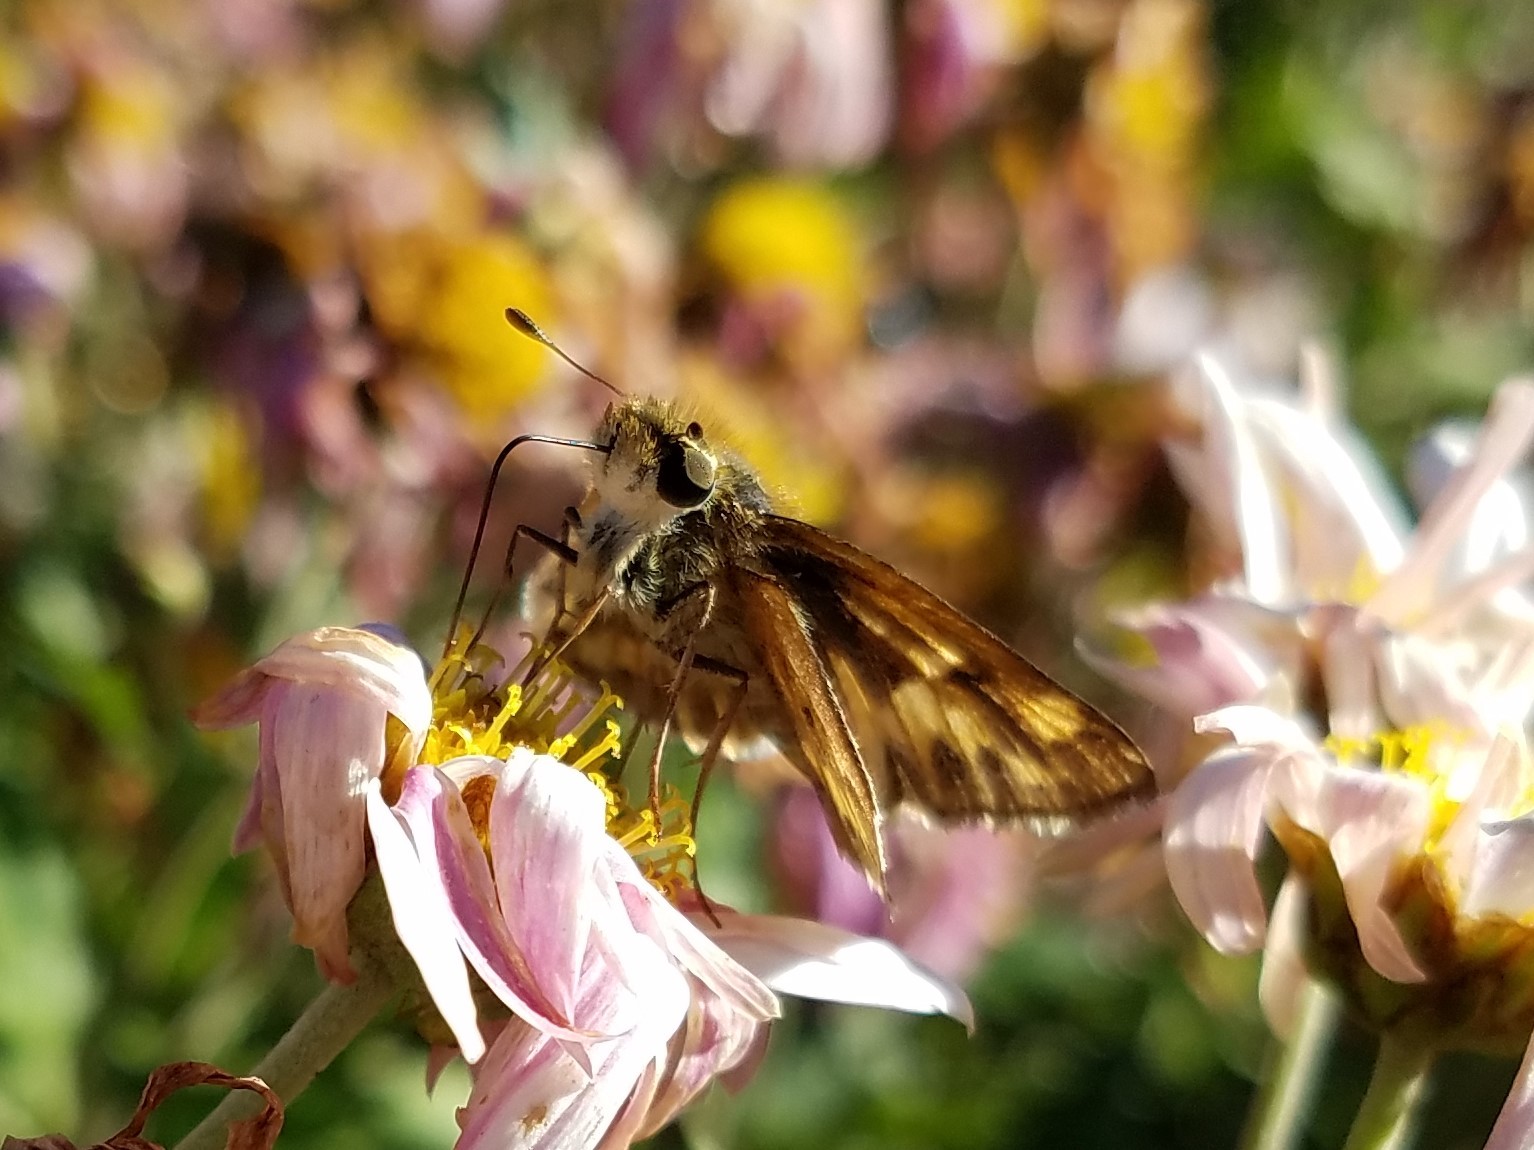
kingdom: Animalia
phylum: Arthropoda
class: Insecta
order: Lepidoptera
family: Hesperiidae
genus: Hylephila
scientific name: Hylephila phyleus
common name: Fiery skipper
